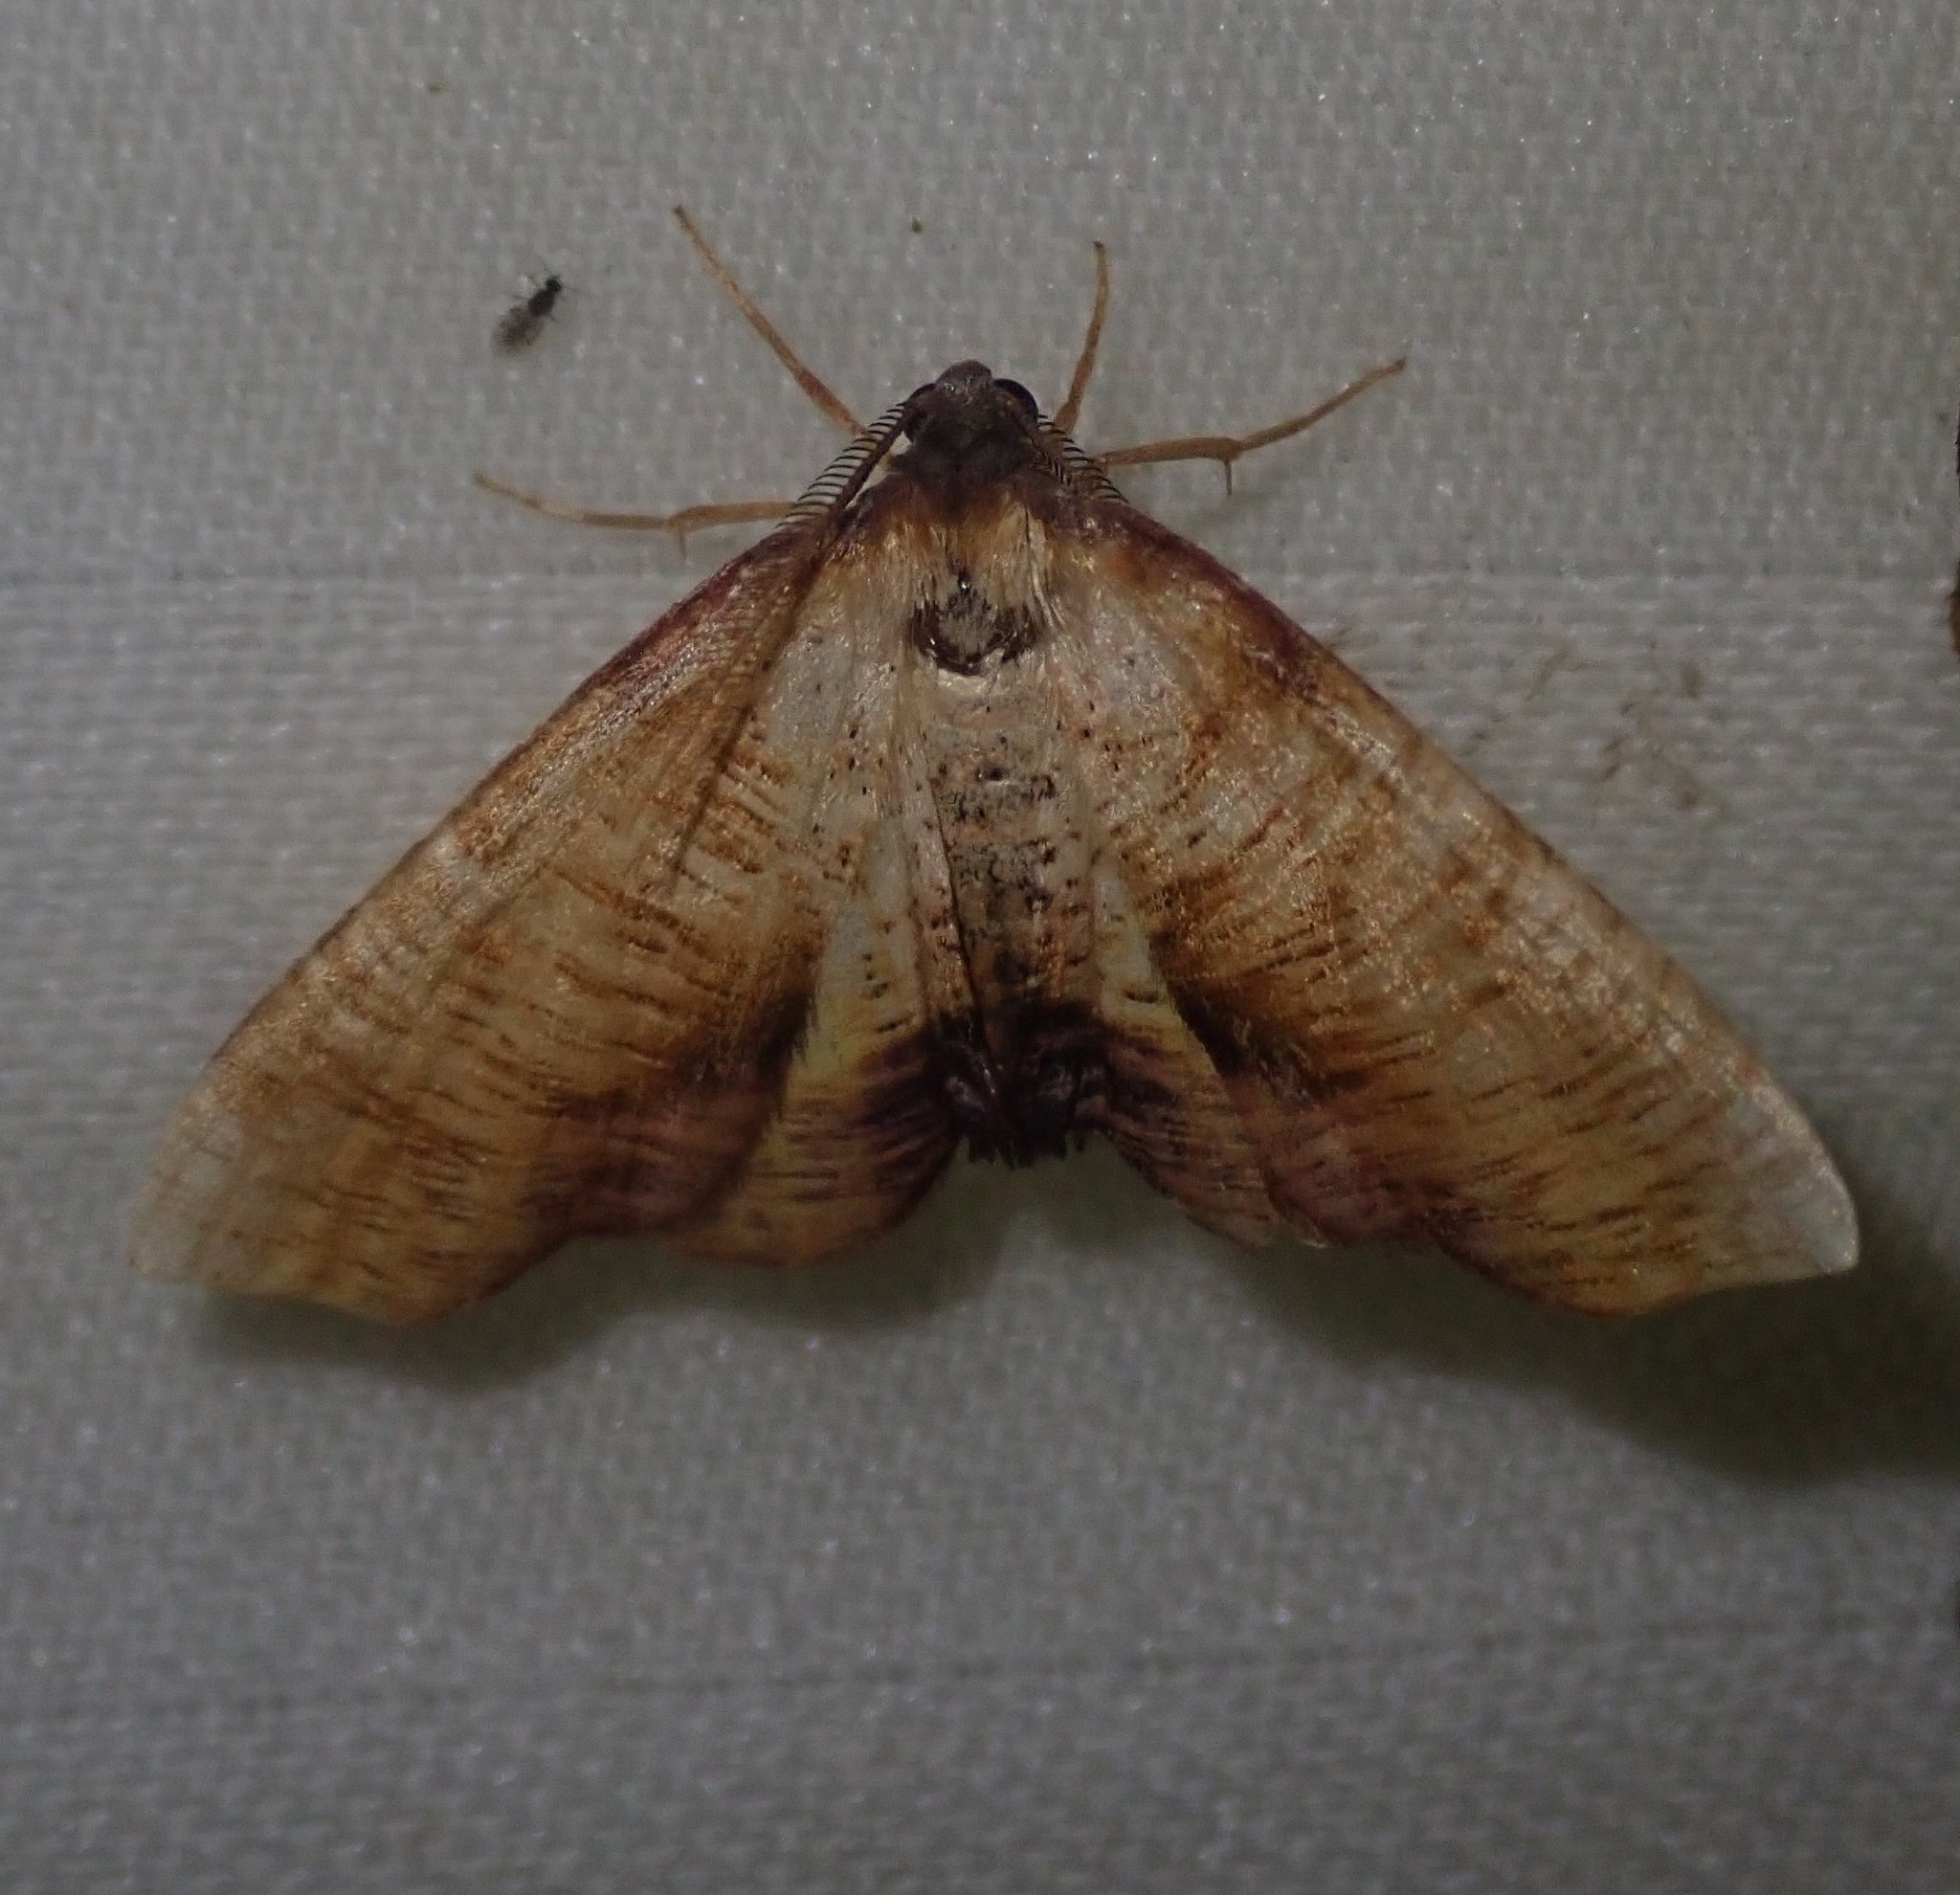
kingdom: Animalia
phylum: Arthropoda
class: Insecta
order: Lepidoptera
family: Geometridae
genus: Plagodis
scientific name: Plagodis dolabraria
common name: Scorched wing
